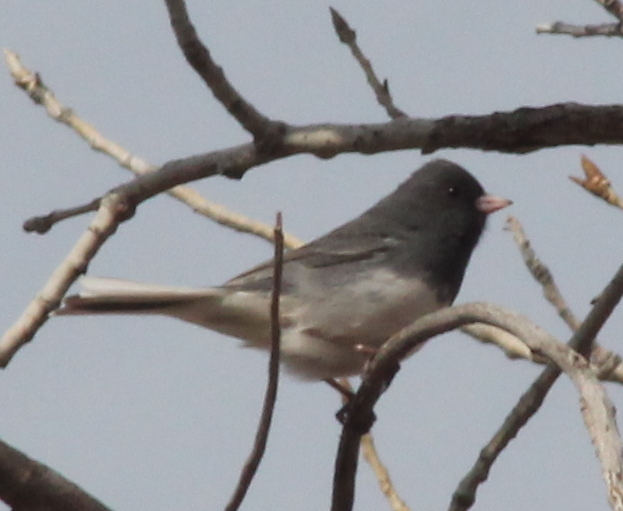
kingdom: Animalia
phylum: Chordata
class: Aves
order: Passeriformes
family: Passerellidae
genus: Junco
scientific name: Junco hyemalis
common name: Dark-eyed junco
